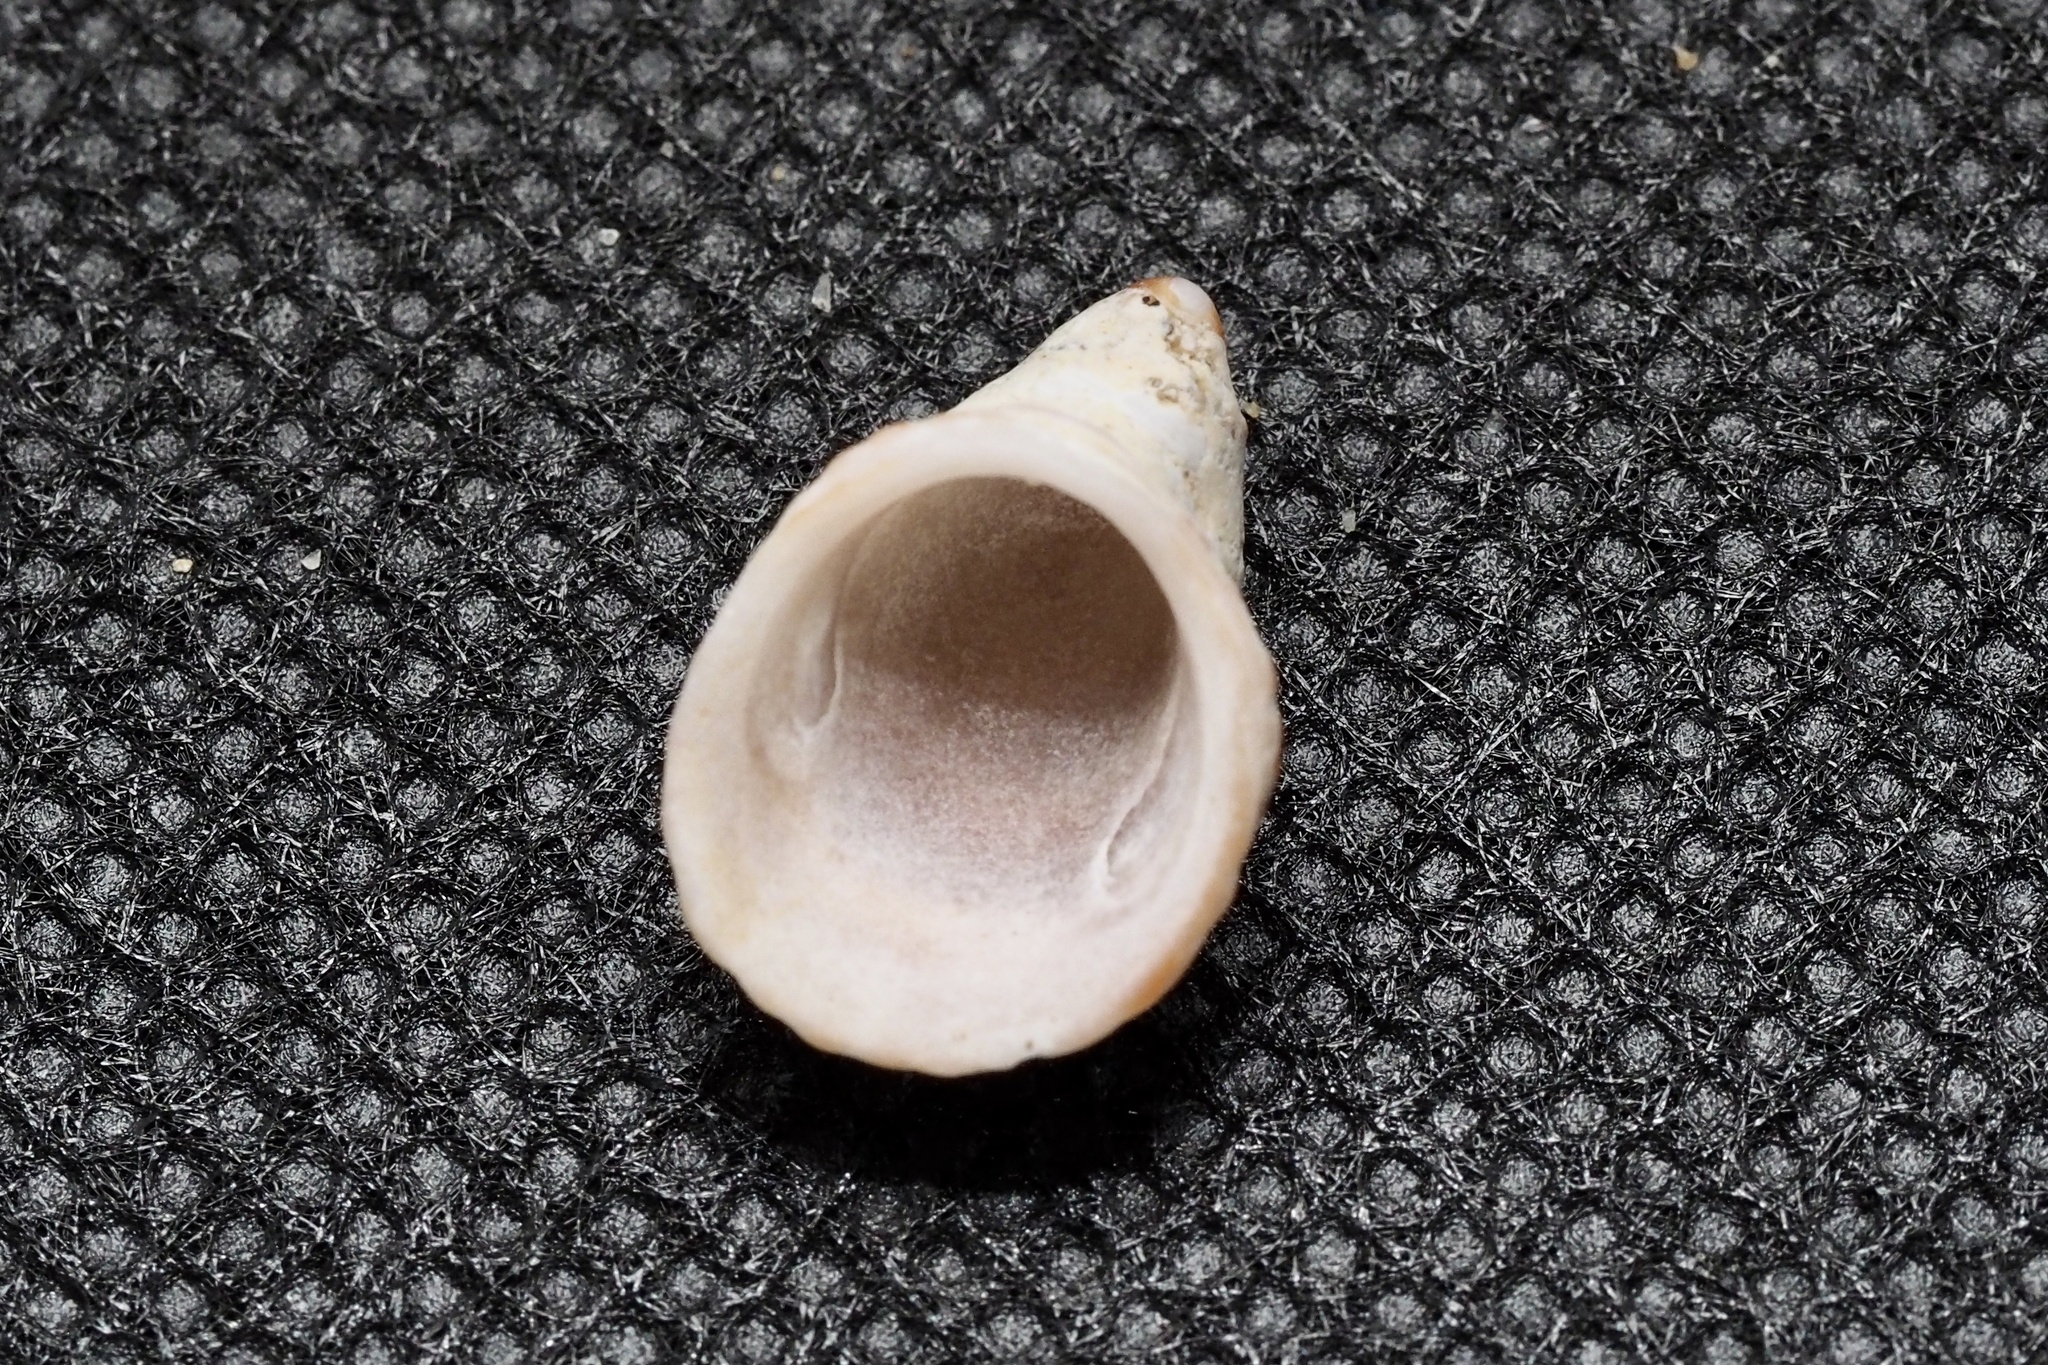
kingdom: Animalia
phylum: Mollusca
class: Gastropoda
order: Littorinimorpha
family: Hipponicidae
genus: Sabia
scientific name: Sabia conica
